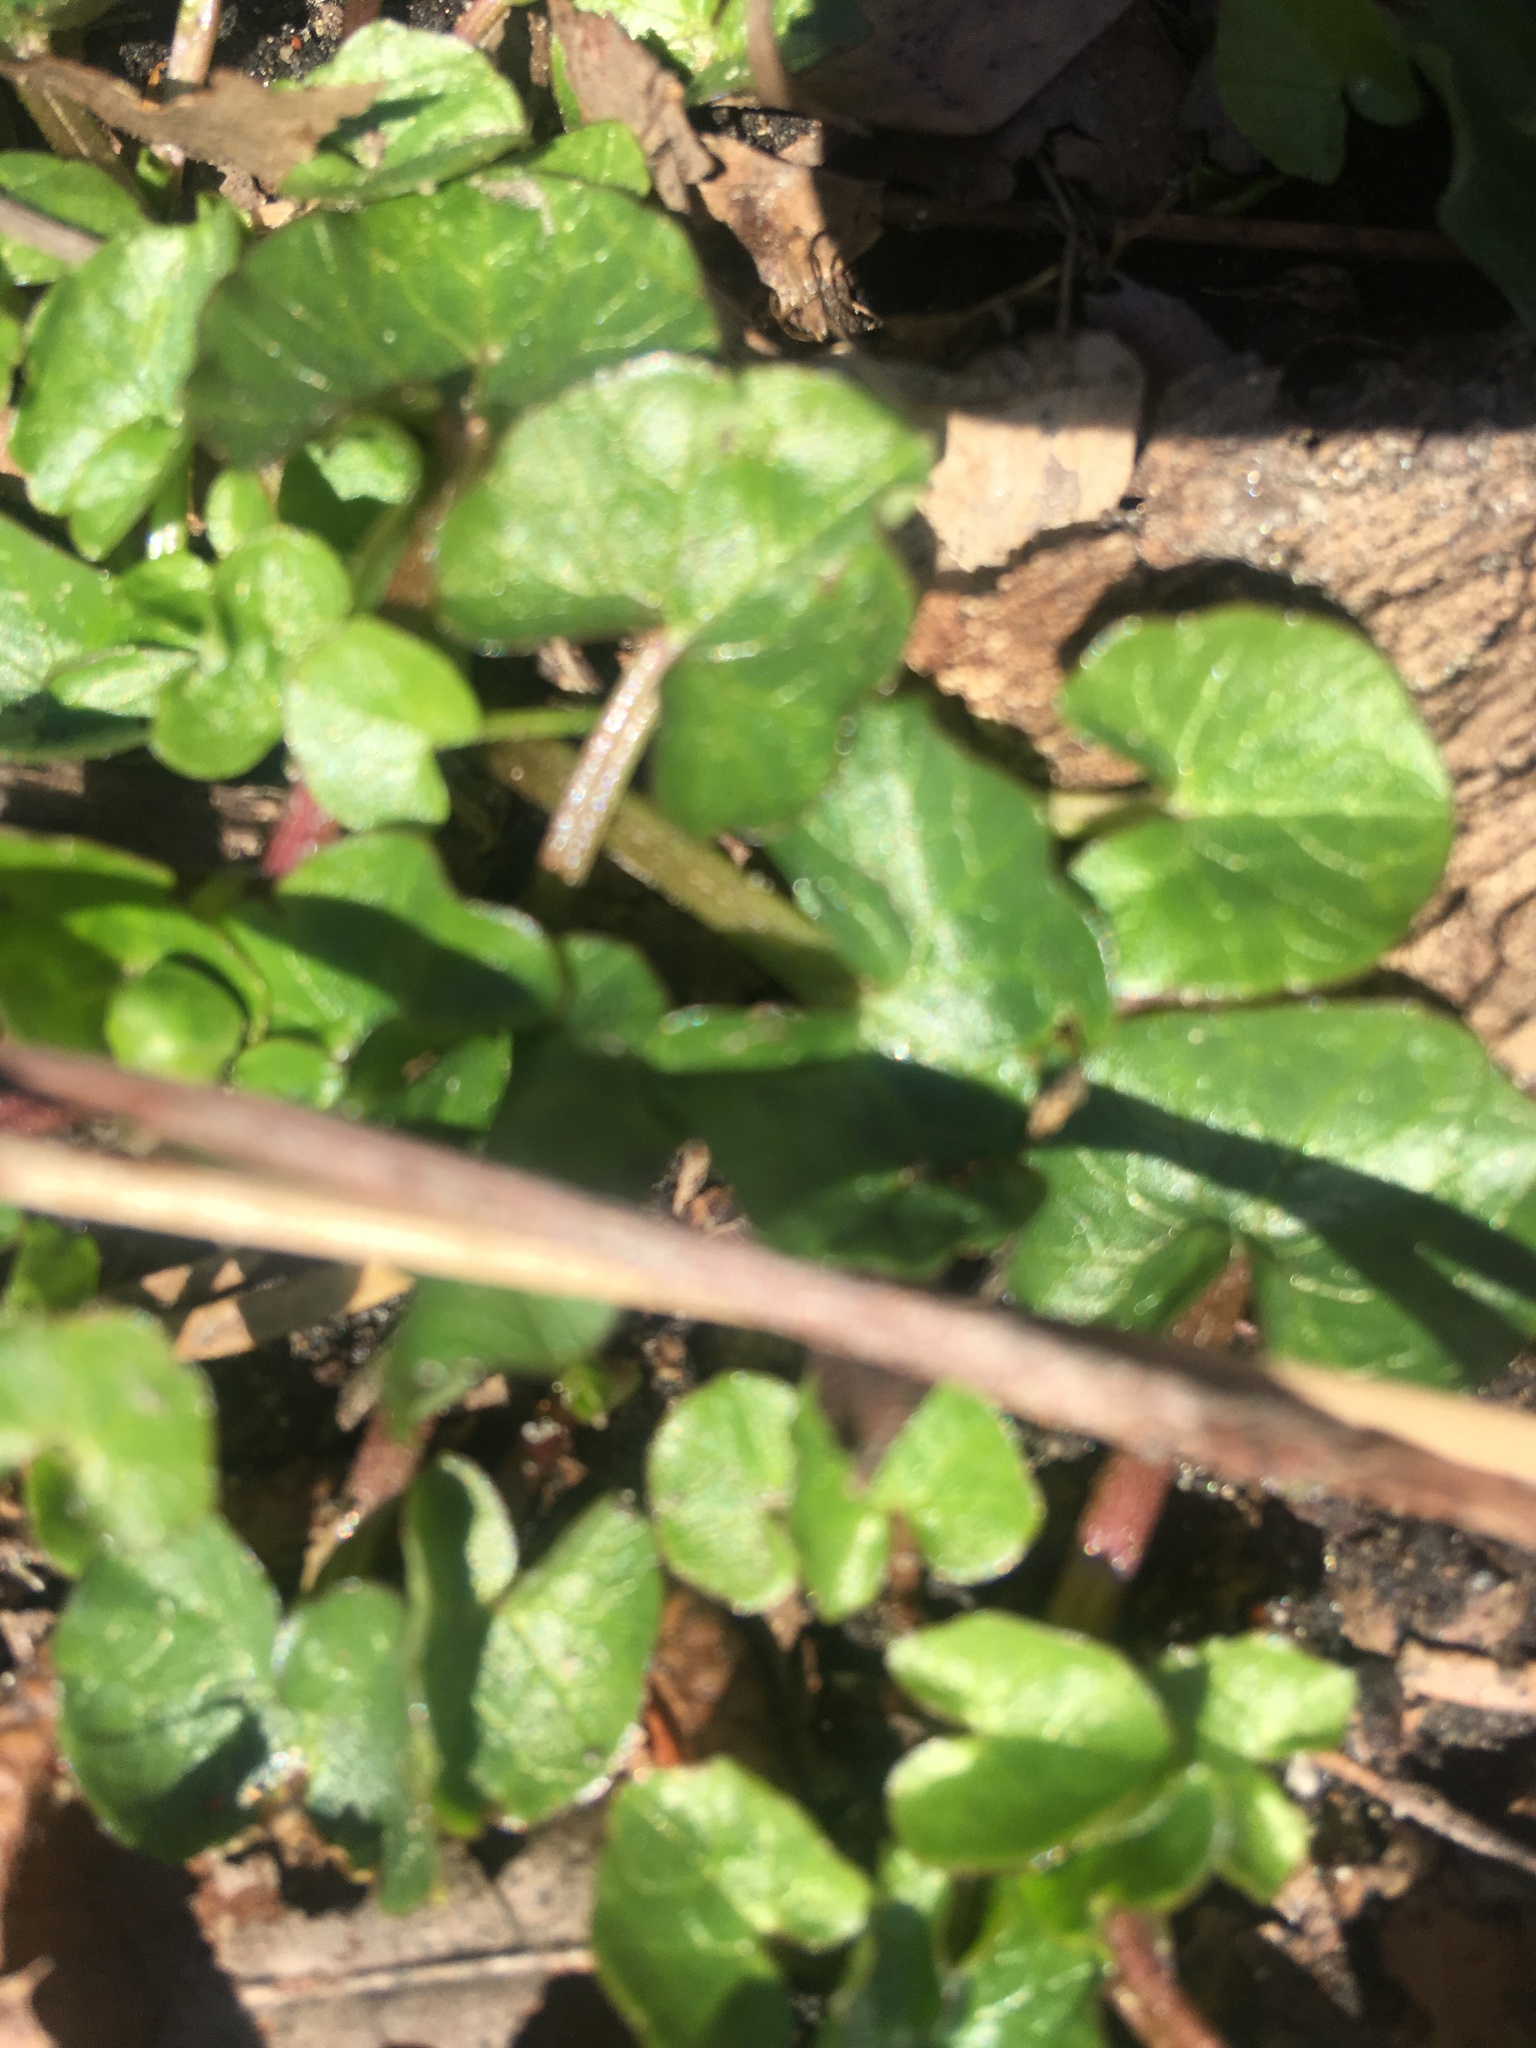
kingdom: Plantae
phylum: Tracheophyta
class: Magnoliopsida
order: Ranunculales
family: Ranunculaceae
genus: Ficaria
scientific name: Ficaria verna
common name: Lesser celandine
